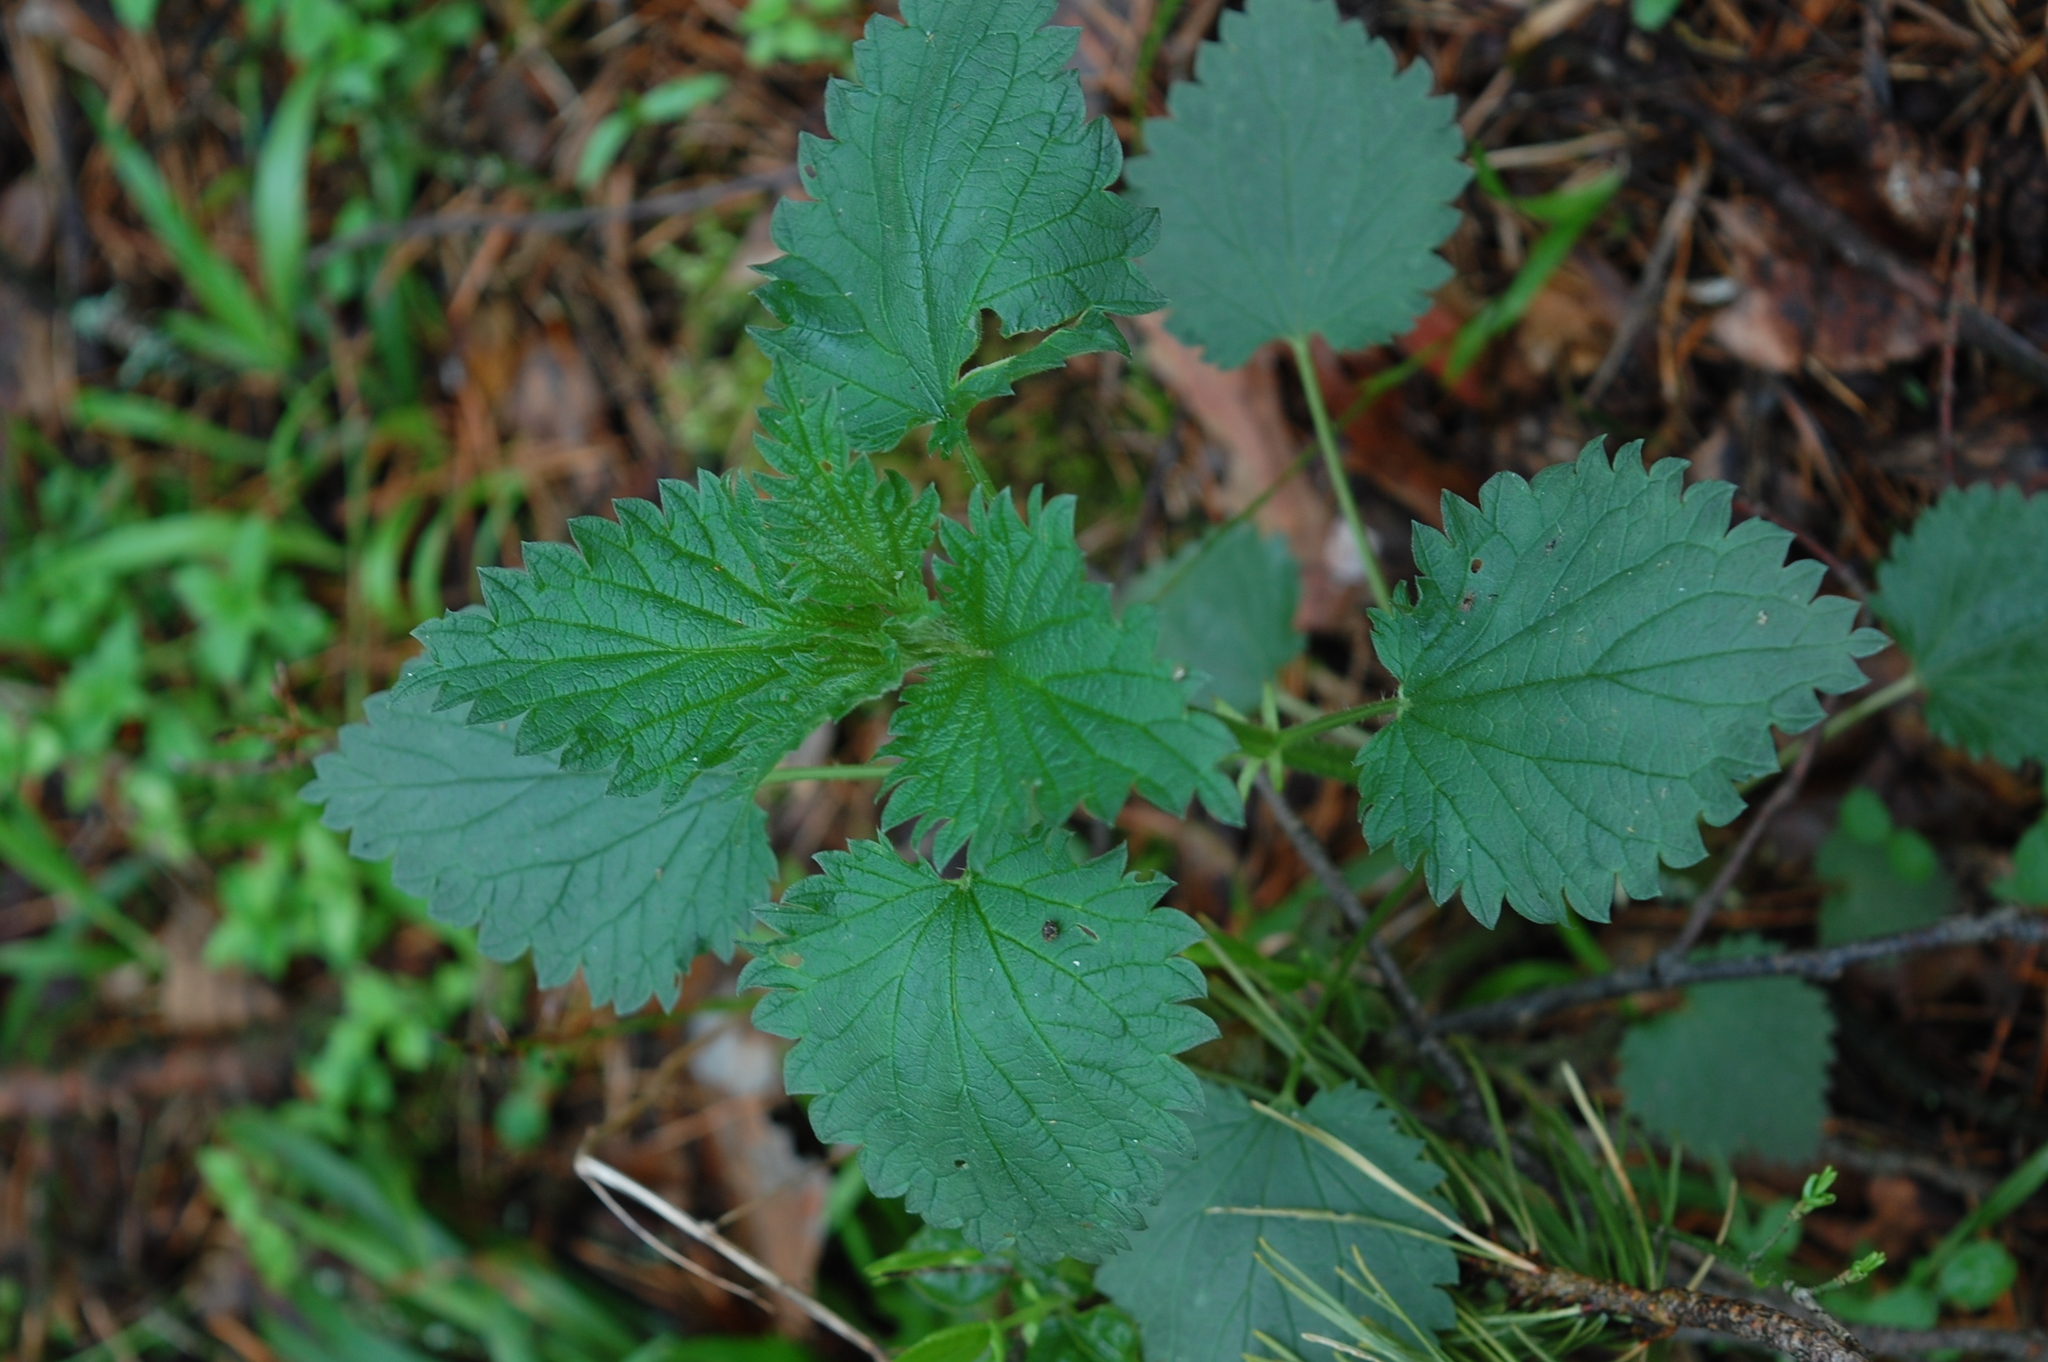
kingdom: Plantae
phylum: Tracheophyta
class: Magnoliopsida
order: Rosales
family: Urticaceae
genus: Urtica
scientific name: Urtica dioica
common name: Common nettle
